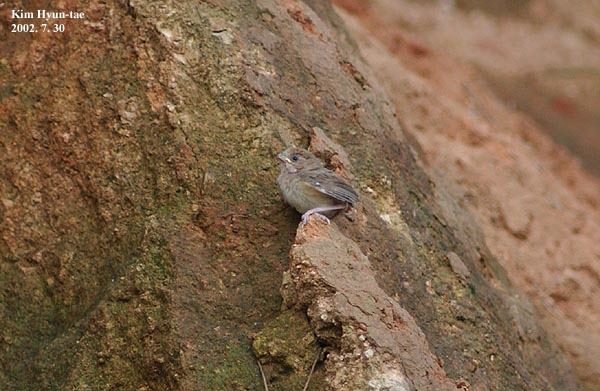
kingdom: Animalia
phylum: Chordata
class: Aves
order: Passeriformes
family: Sylviidae
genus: Sinosuthora
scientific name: Sinosuthora webbiana
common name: Vinous-throated parrotbill
